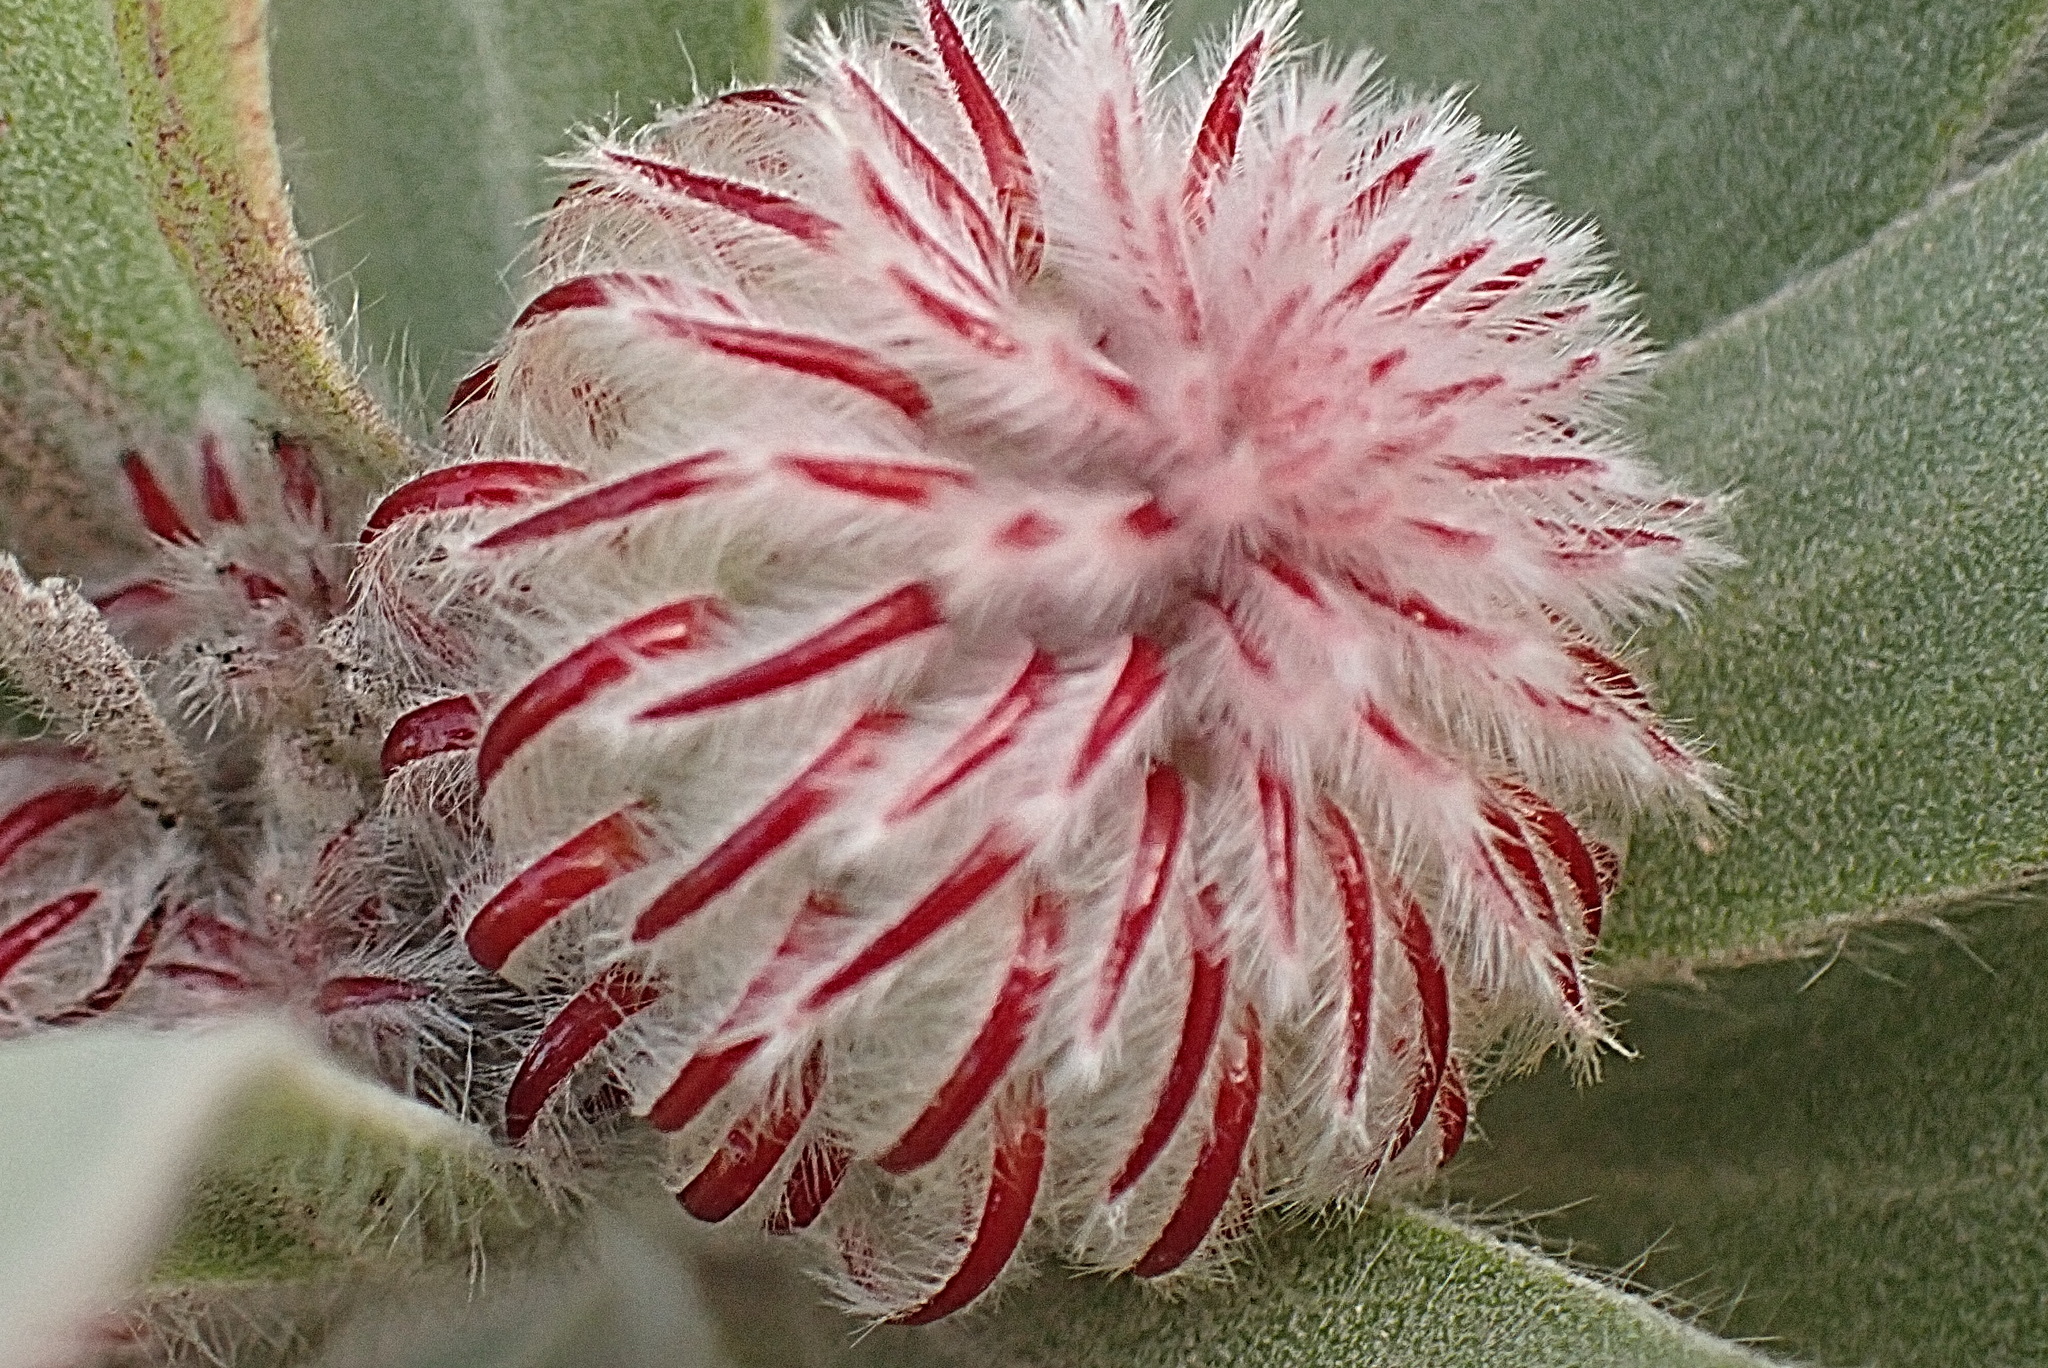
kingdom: Plantae
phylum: Tracheophyta
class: Magnoliopsida
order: Proteales
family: Proteaceae
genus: Leucospermum
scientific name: Leucospermum pluridens
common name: Robinson pincushion
